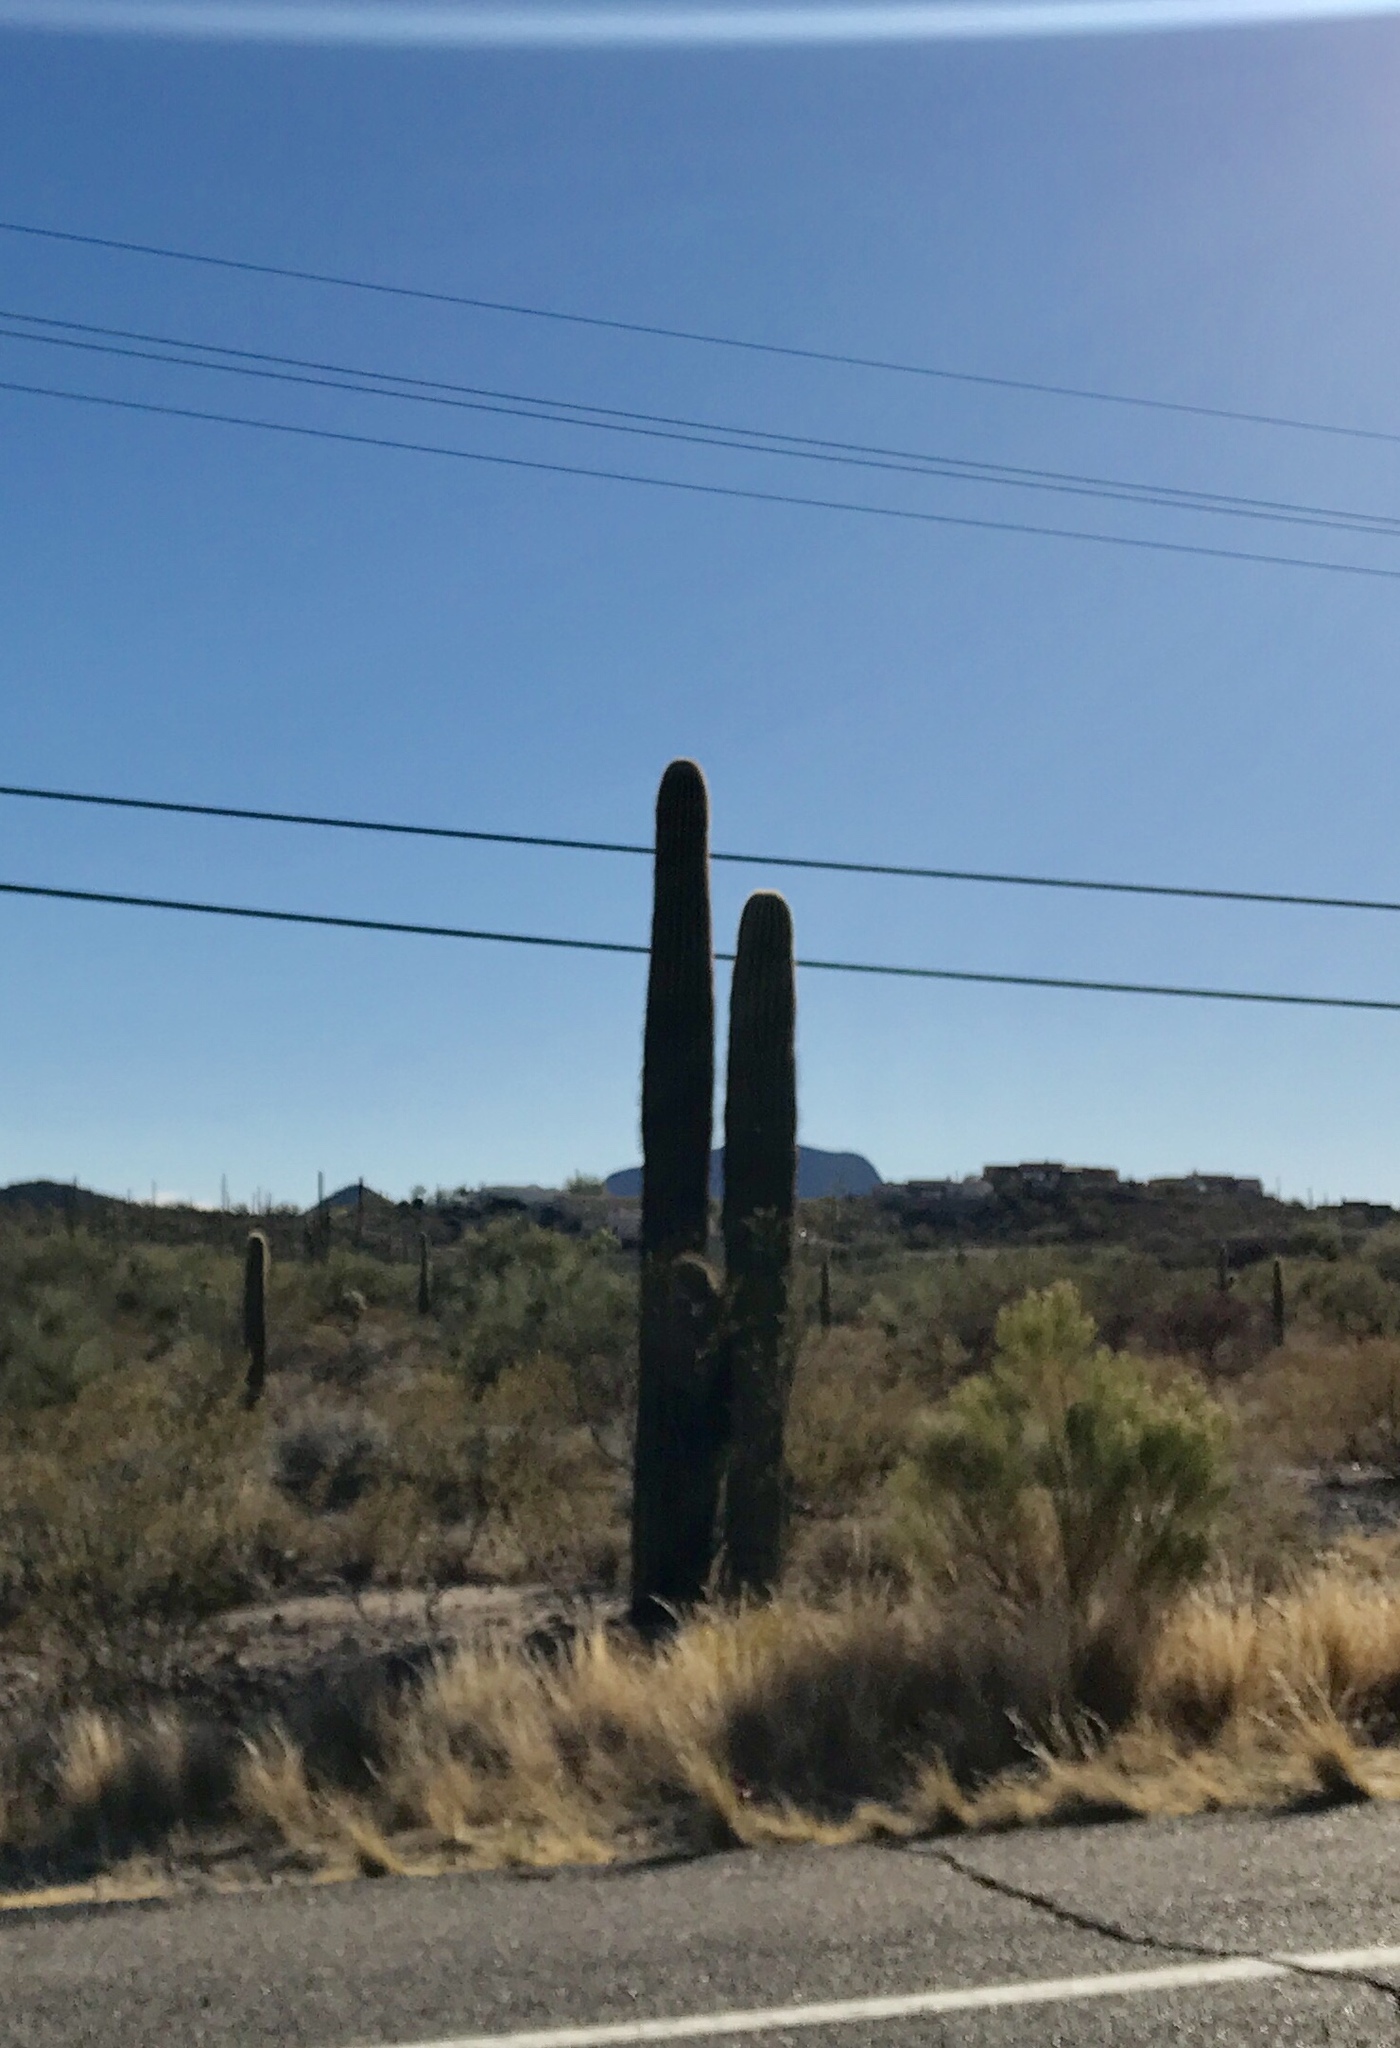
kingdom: Plantae
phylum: Tracheophyta
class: Magnoliopsida
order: Caryophyllales
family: Cactaceae
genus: Carnegiea
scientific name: Carnegiea gigantea
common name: Saguaro
